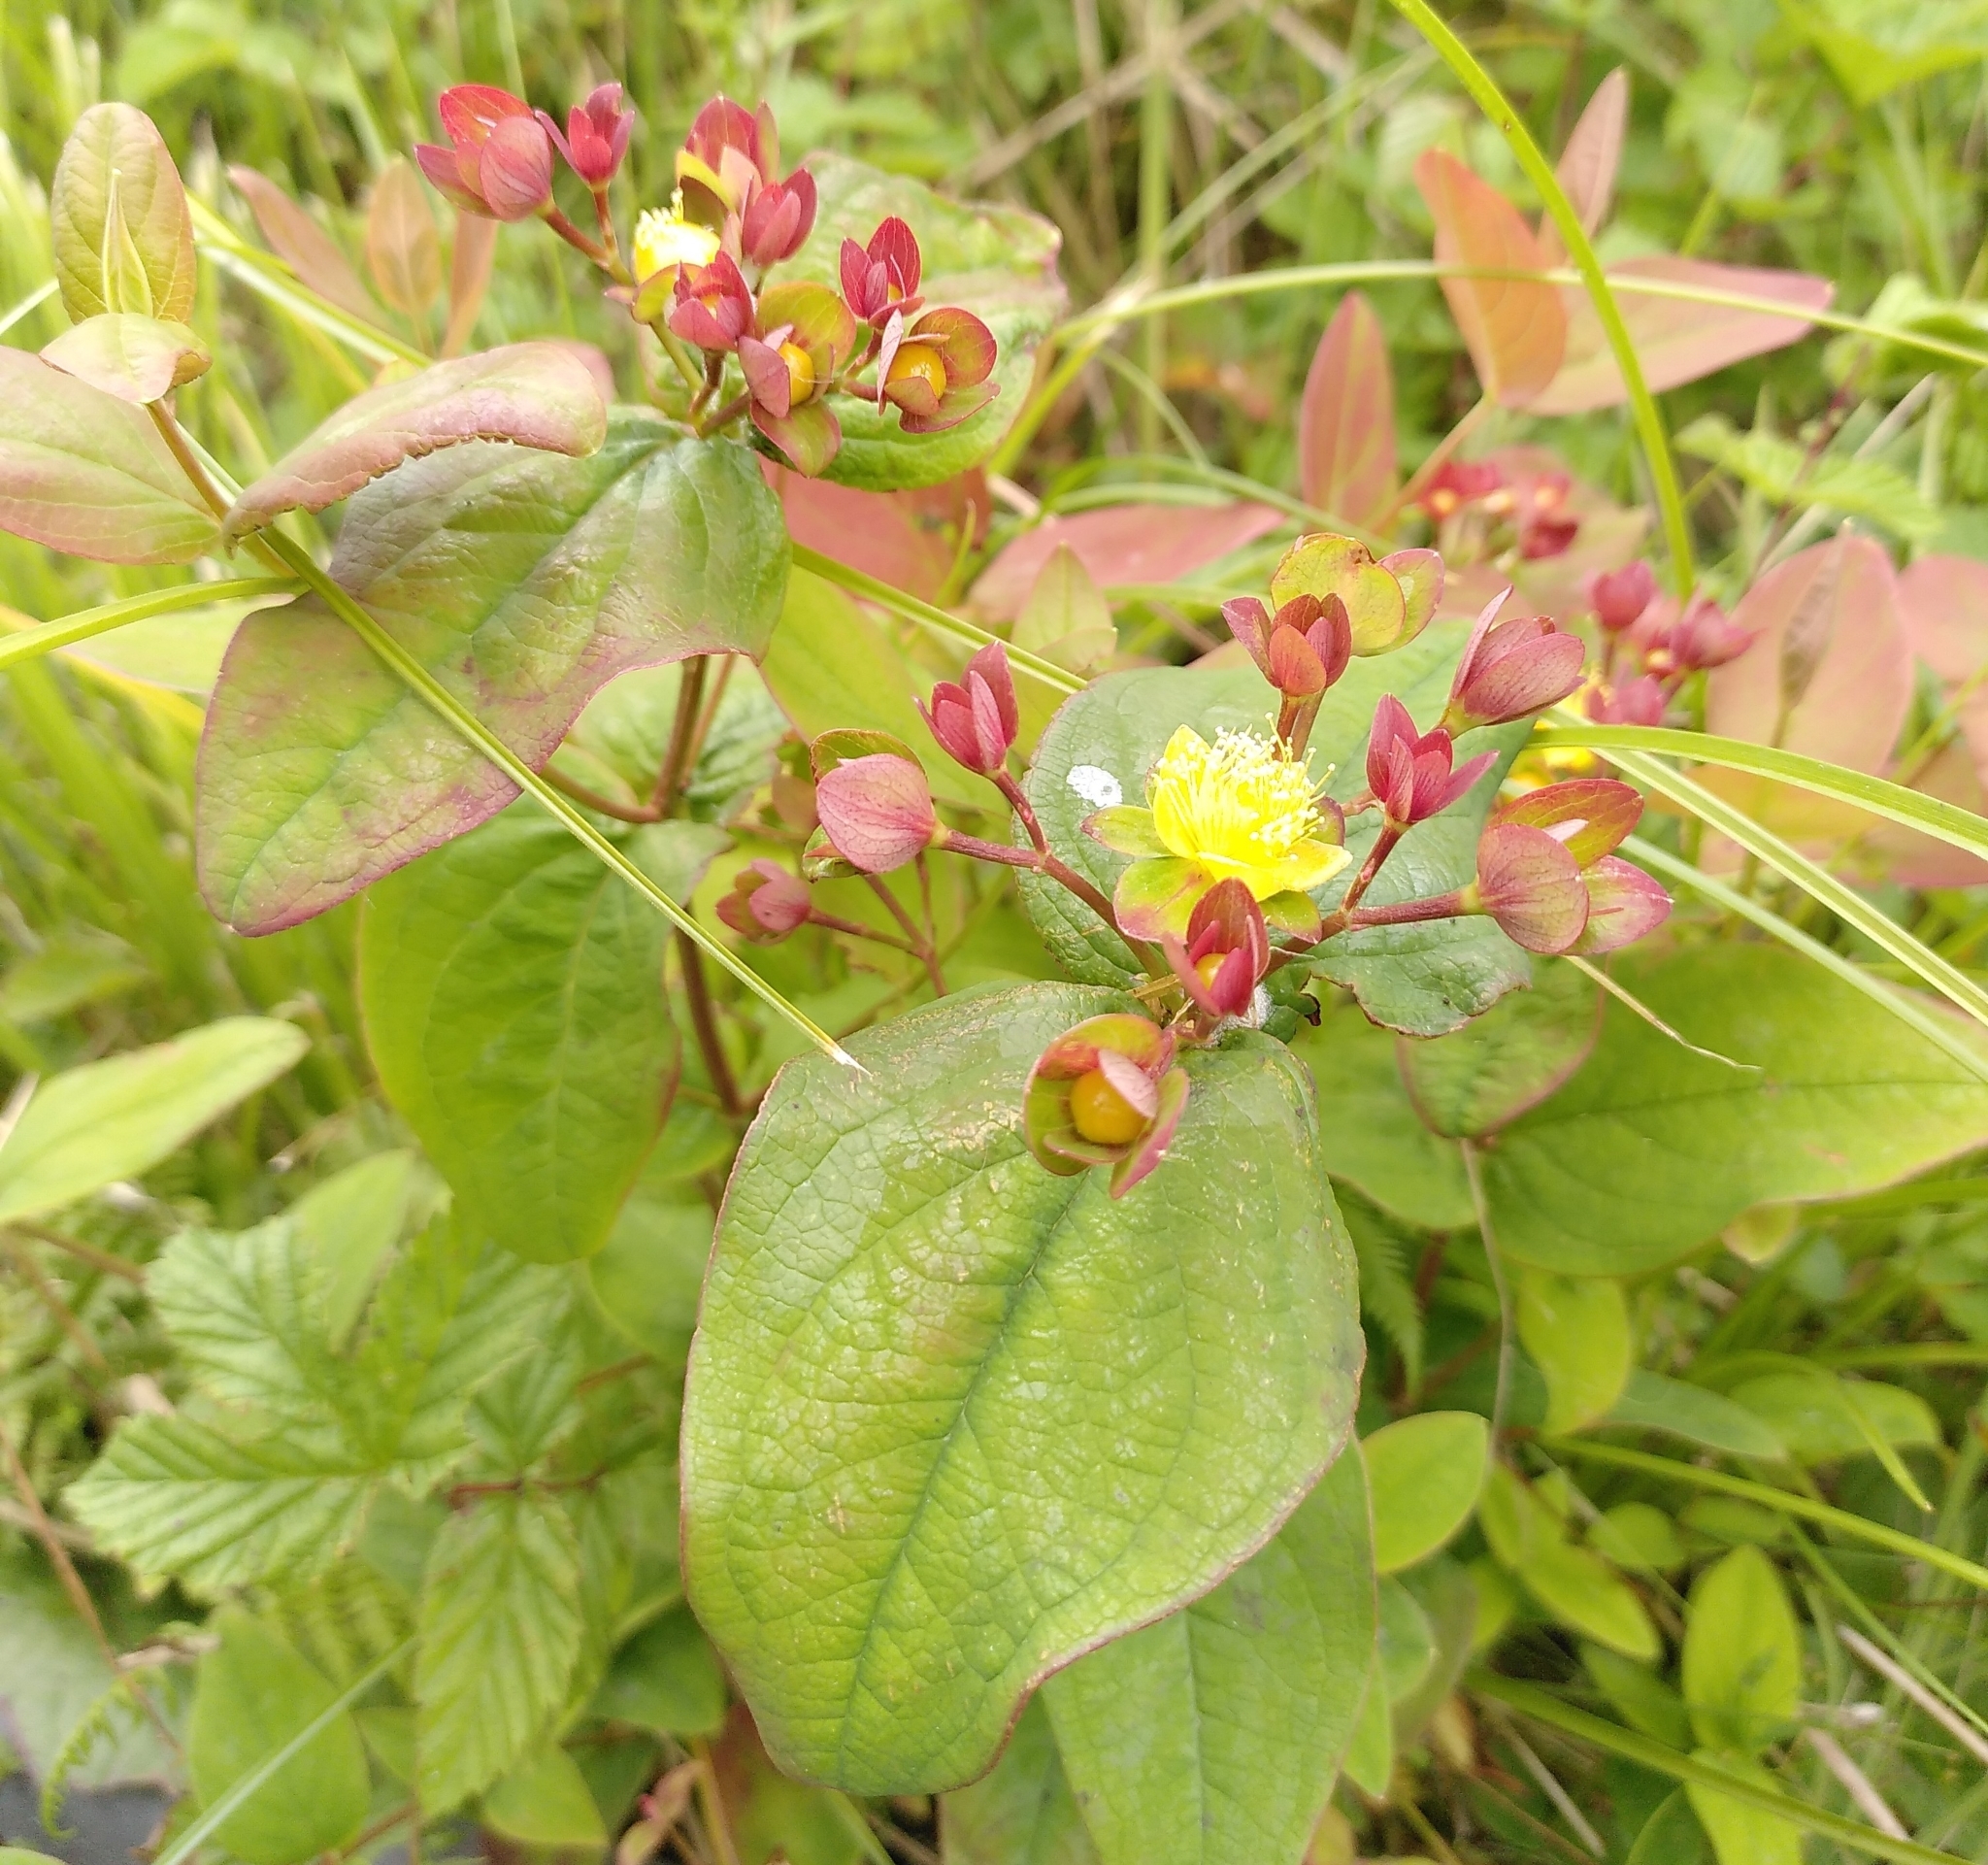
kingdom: Plantae
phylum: Tracheophyta
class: Magnoliopsida
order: Malpighiales
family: Hypericaceae
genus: Hypericum
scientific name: Hypericum androsaemum
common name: Sweet-amber
